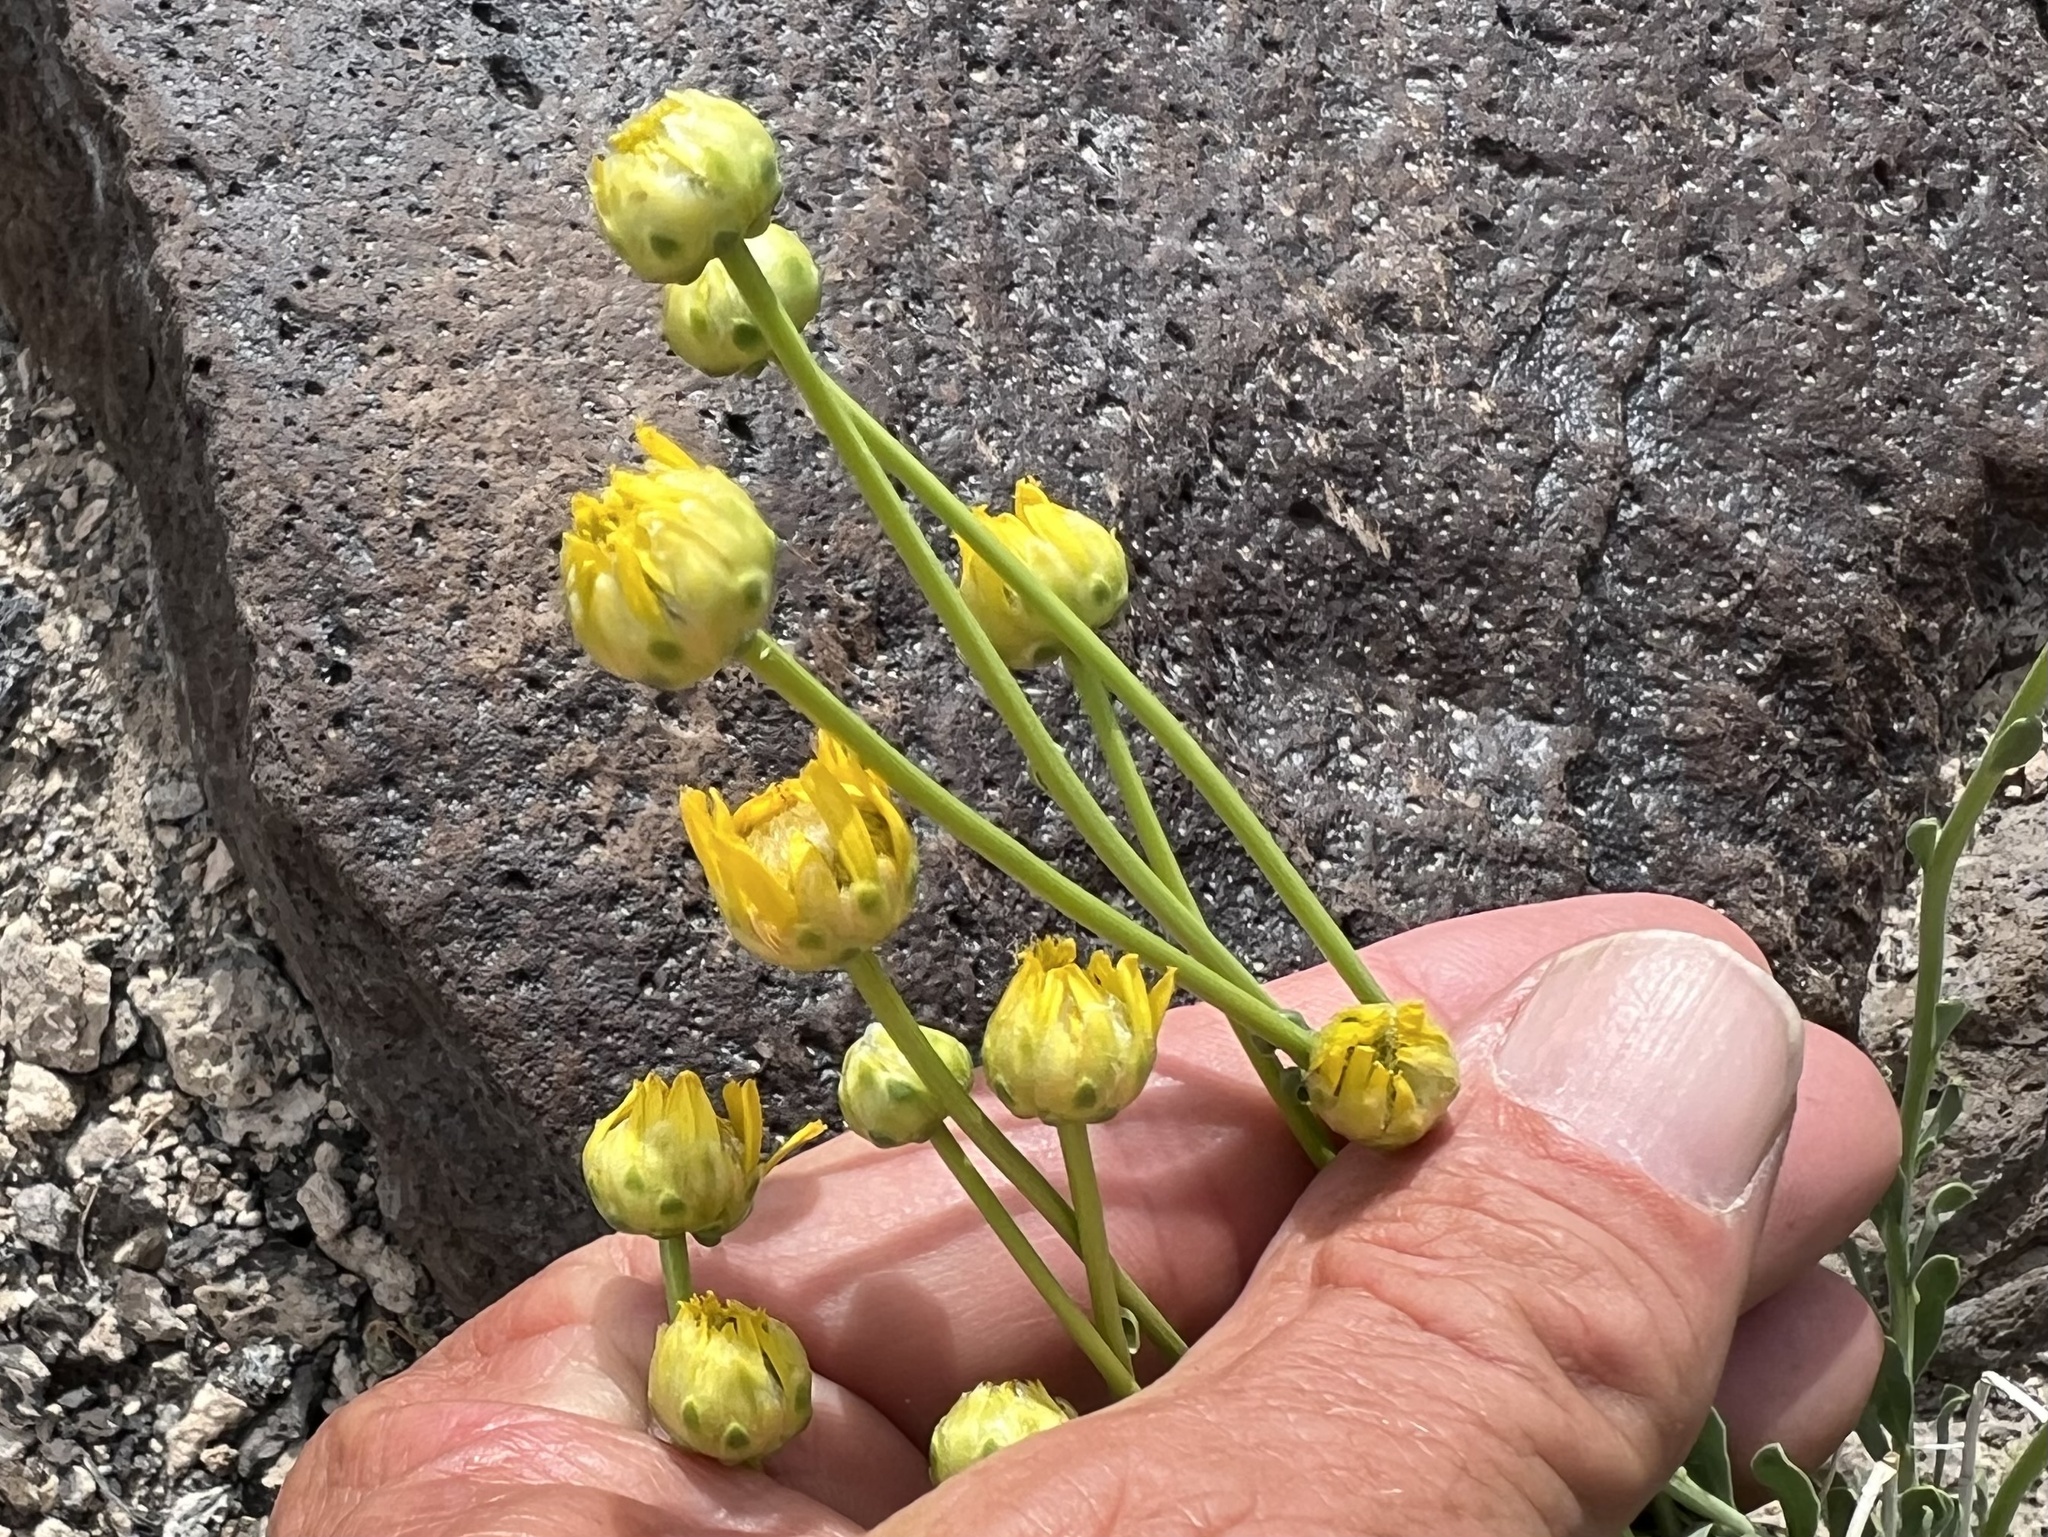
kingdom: Plantae
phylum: Tracheophyta
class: Magnoliopsida
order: Asterales
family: Asteraceae
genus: Acamptopappus
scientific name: Acamptopappus shockleyi
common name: Shockley's goldenhead
